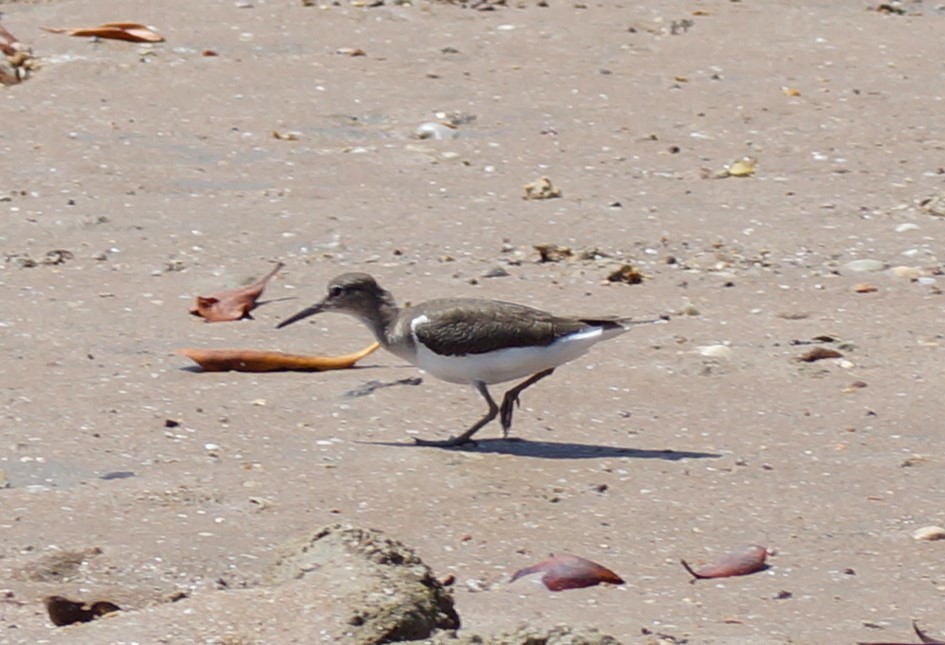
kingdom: Animalia
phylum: Chordata
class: Aves
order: Charadriiformes
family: Scolopacidae
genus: Actitis
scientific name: Actitis hypoleucos
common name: Common sandpiper
